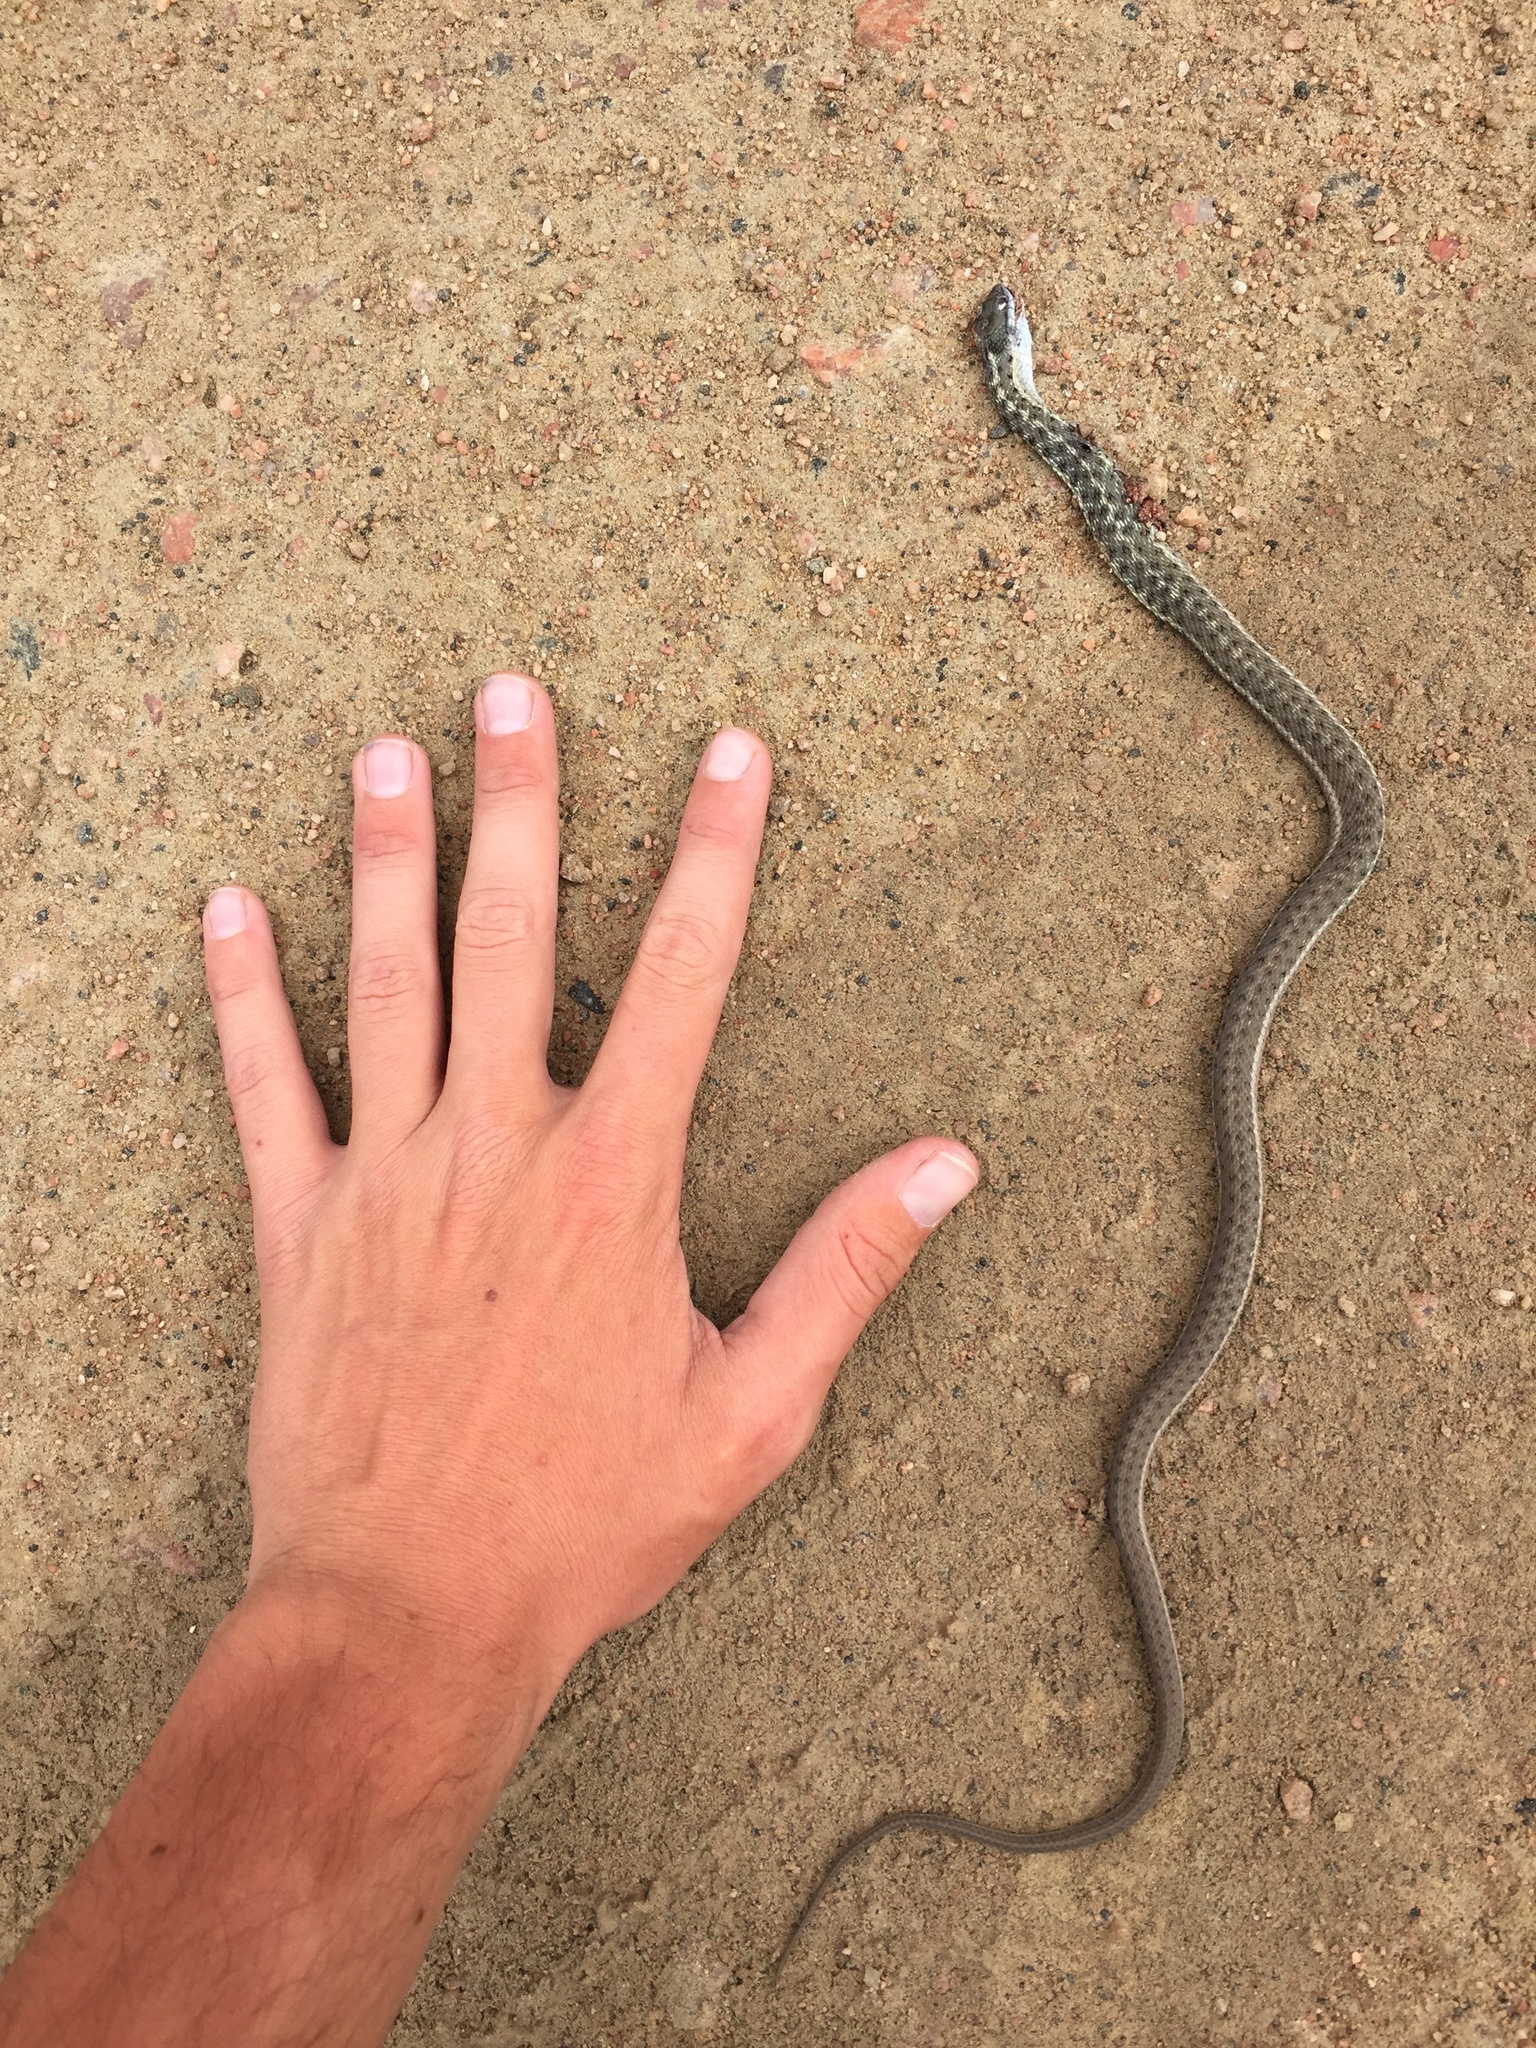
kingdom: Animalia
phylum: Chordata
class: Squamata
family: Colubridae
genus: Thamnophis
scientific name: Thamnophis elegans
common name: Western terrestrial garter snake
